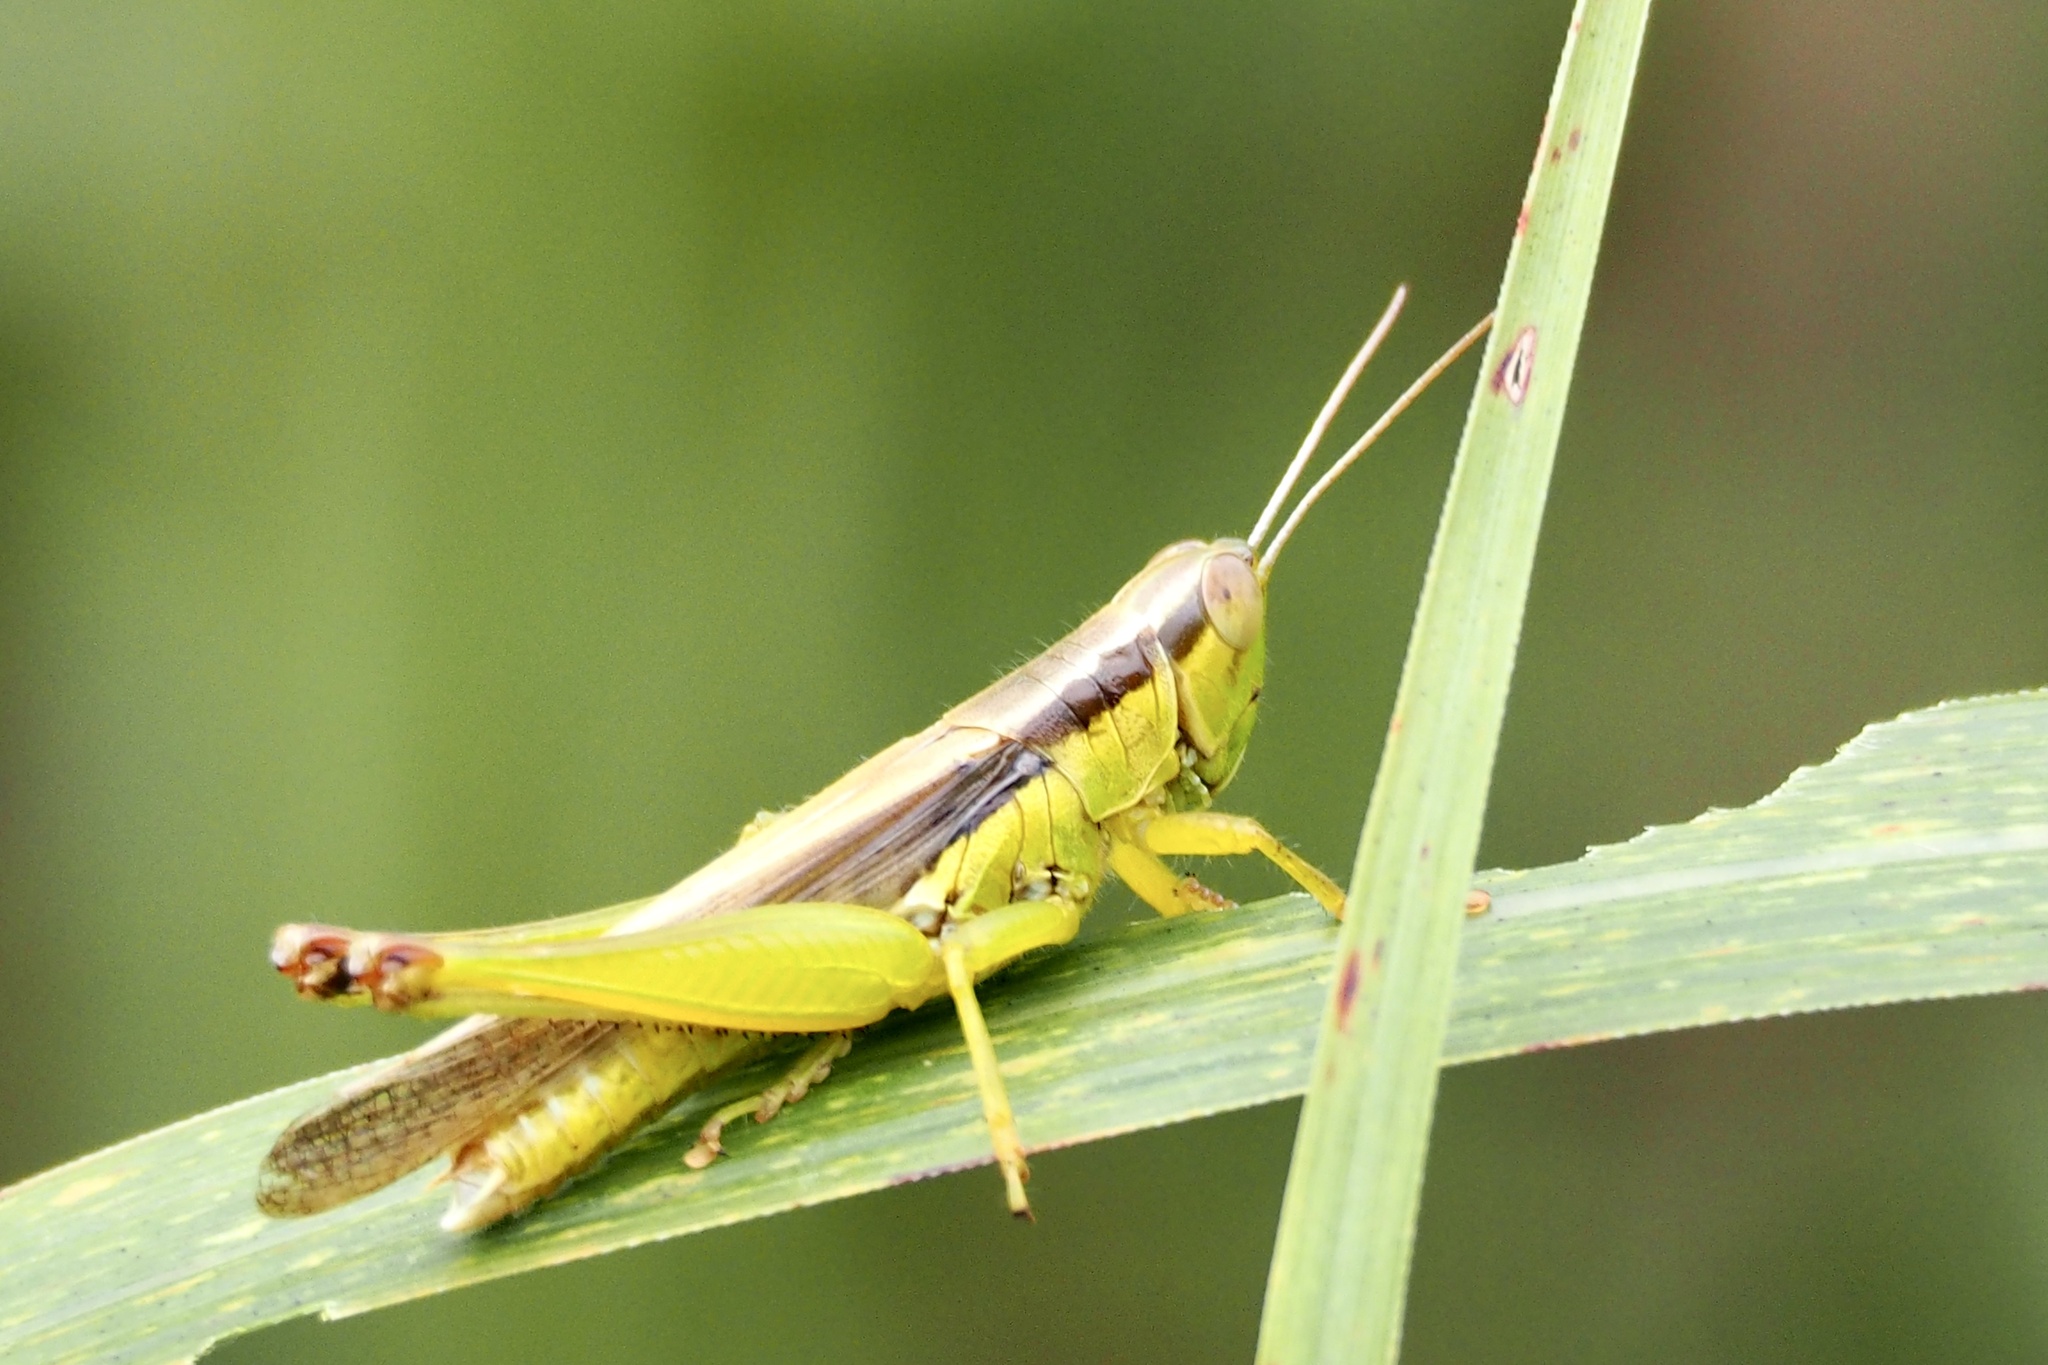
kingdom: Animalia
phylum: Arthropoda
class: Insecta
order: Orthoptera
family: Acrididae
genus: Oxya
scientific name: Oxya japonica
